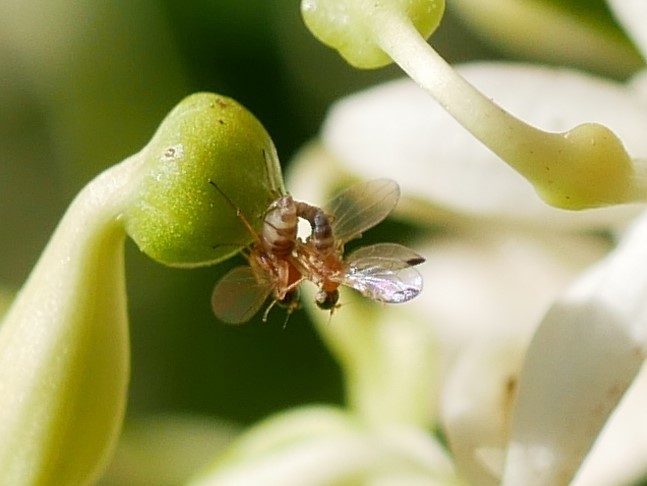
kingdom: Animalia
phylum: Arthropoda
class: Insecta
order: Diptera
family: Empididae
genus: Phyllodromia
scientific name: Phyllodromia flexura
